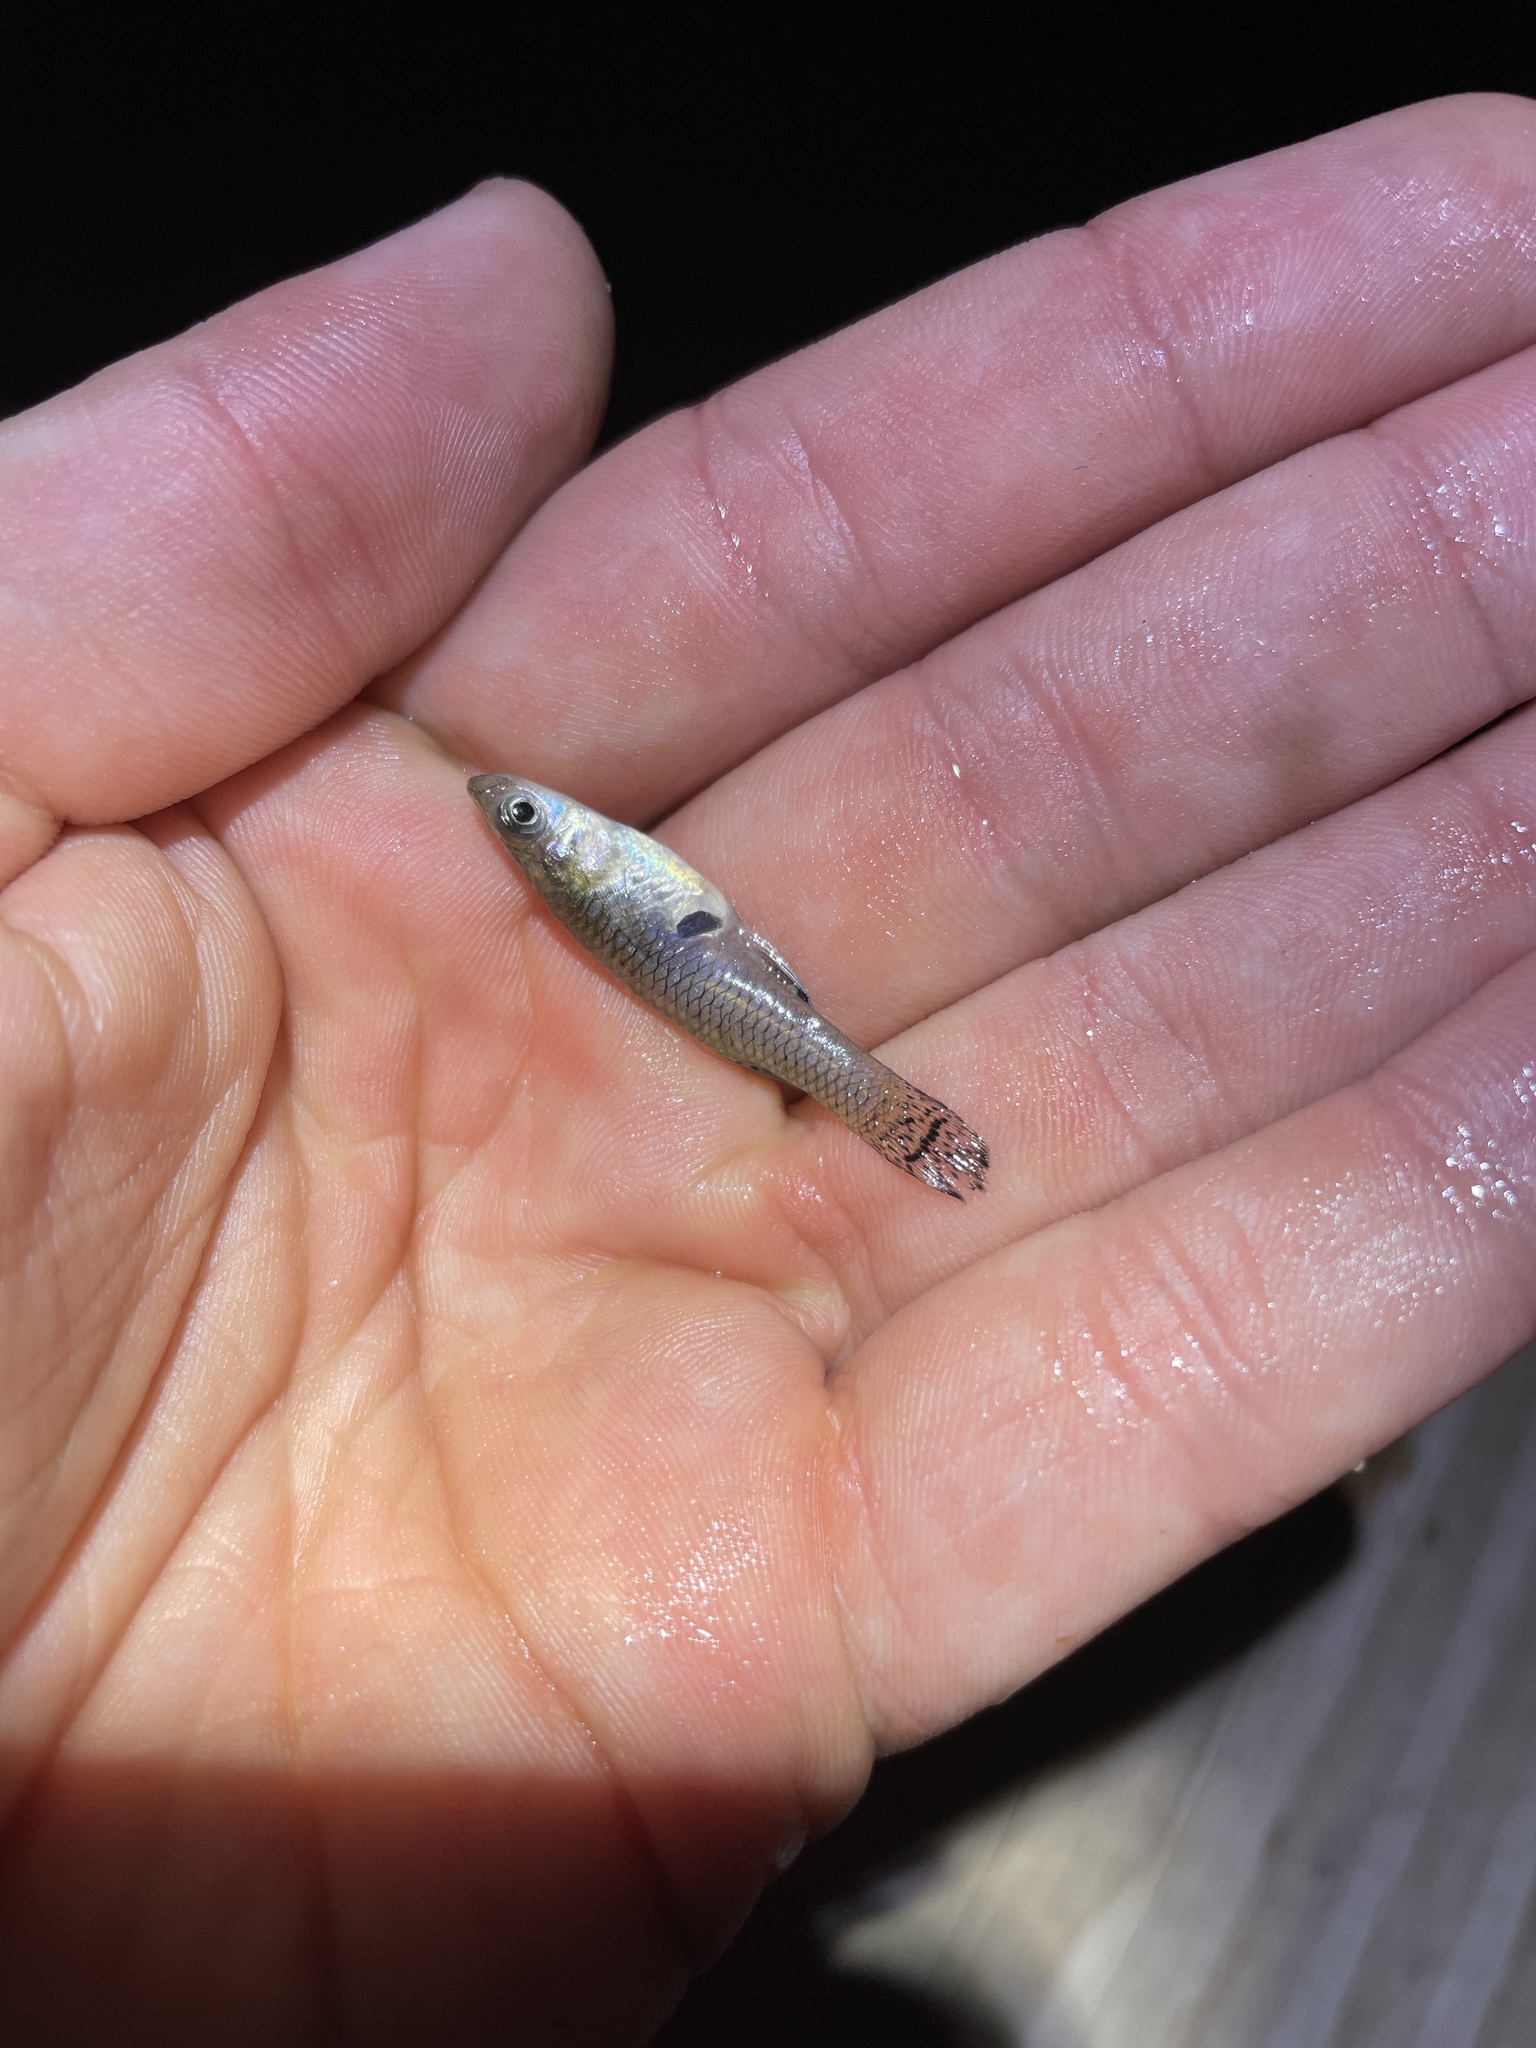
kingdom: Animalia
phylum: Chordata
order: Cyprinodontiformes
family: Poeciliidae
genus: Gambusia
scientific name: Gambusia holbrooki
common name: Eastern mosquitofish
